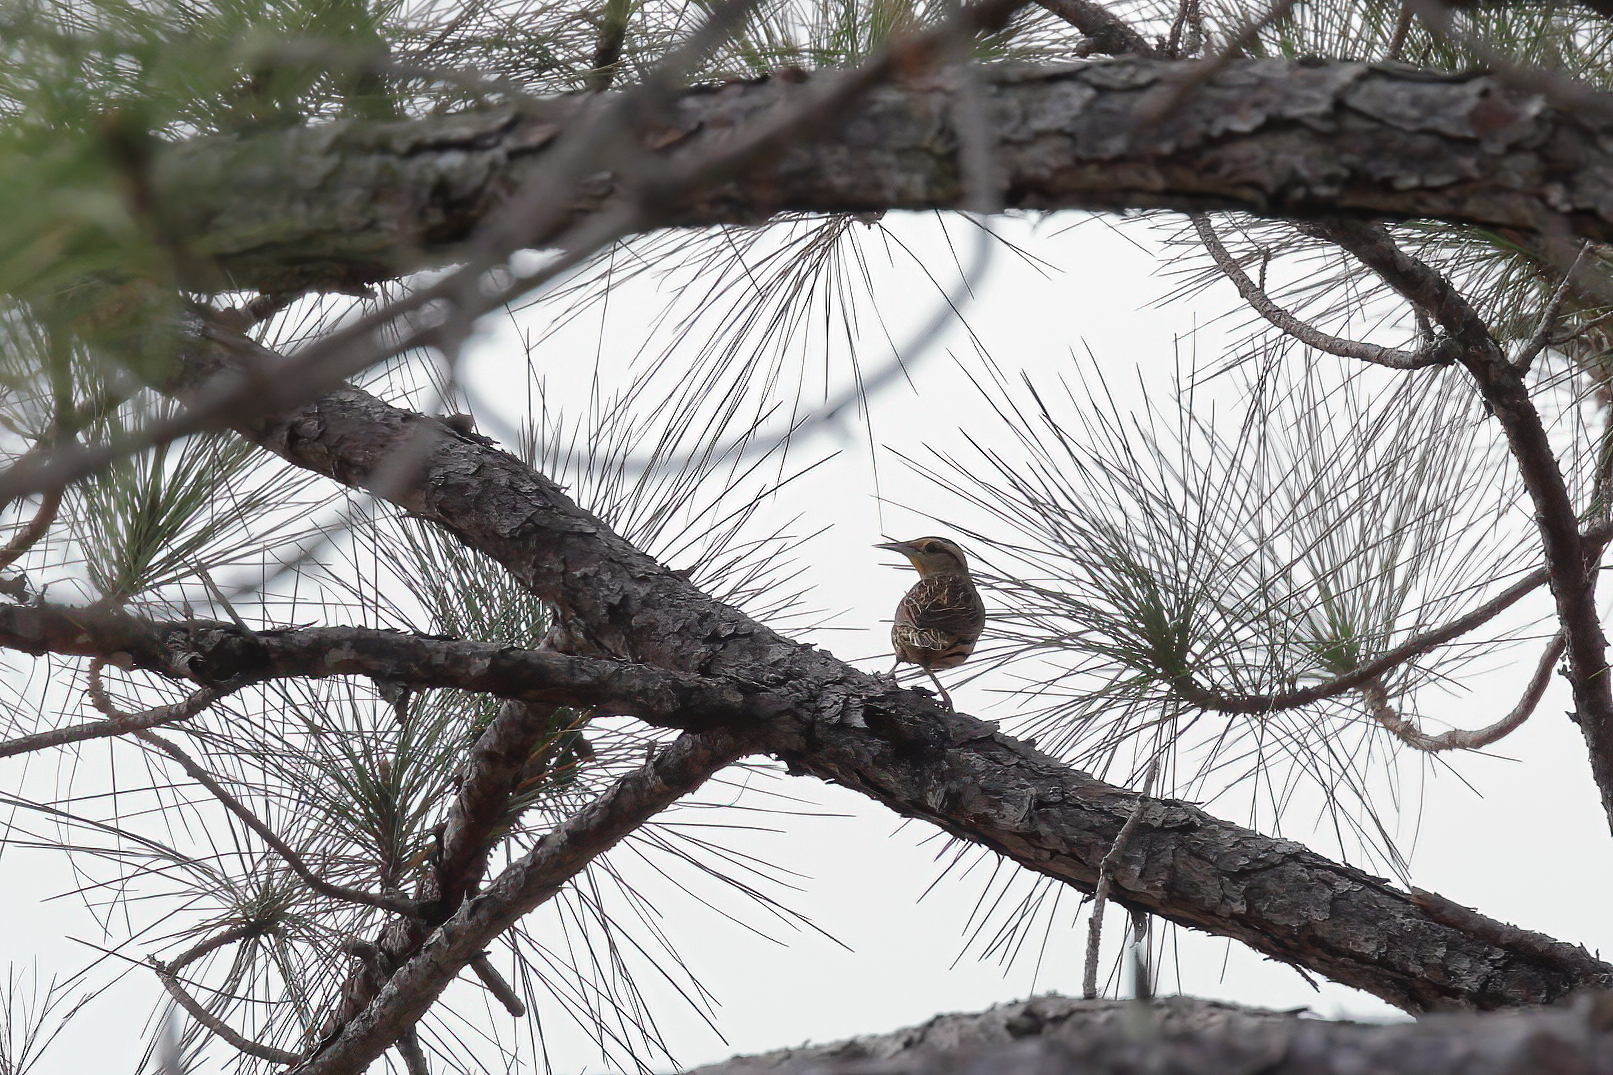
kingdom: Animalia
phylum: Chordata
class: Aves
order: Passeriformes
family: Icteridae
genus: Sturnella
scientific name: Sturnella magna
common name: Eastern meadowlark
